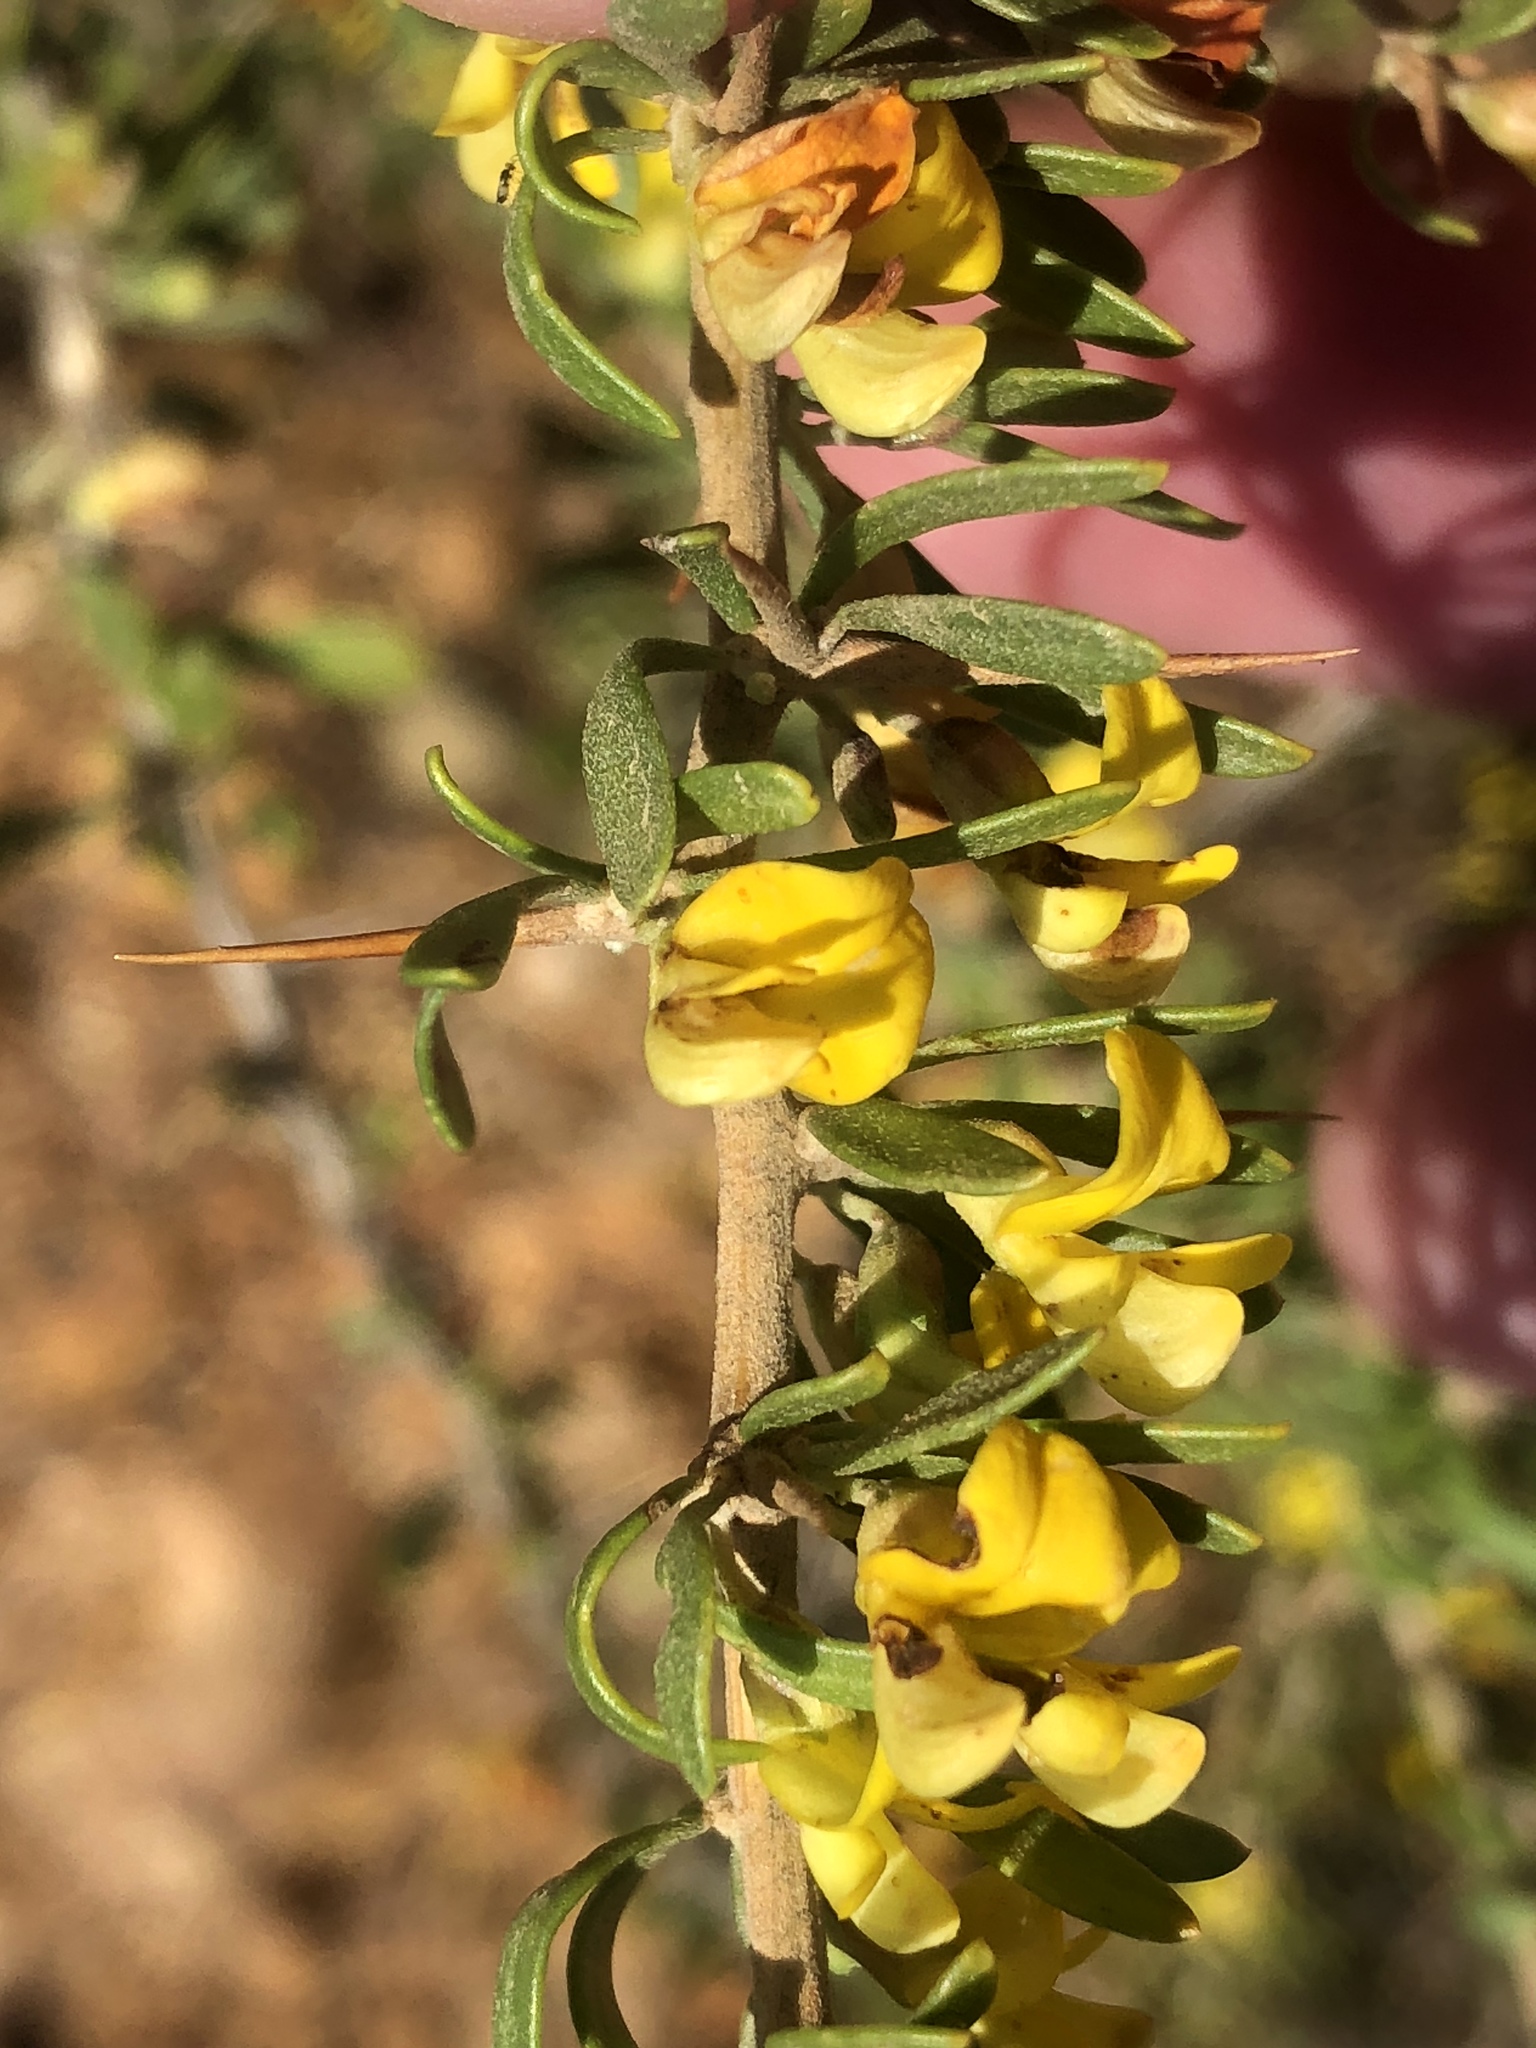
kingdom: Plantae
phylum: Tracheophyta
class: Magnoliopsida
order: Fabales
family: Fabaceae
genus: Aspalathus
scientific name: Aspalathus spinosa
